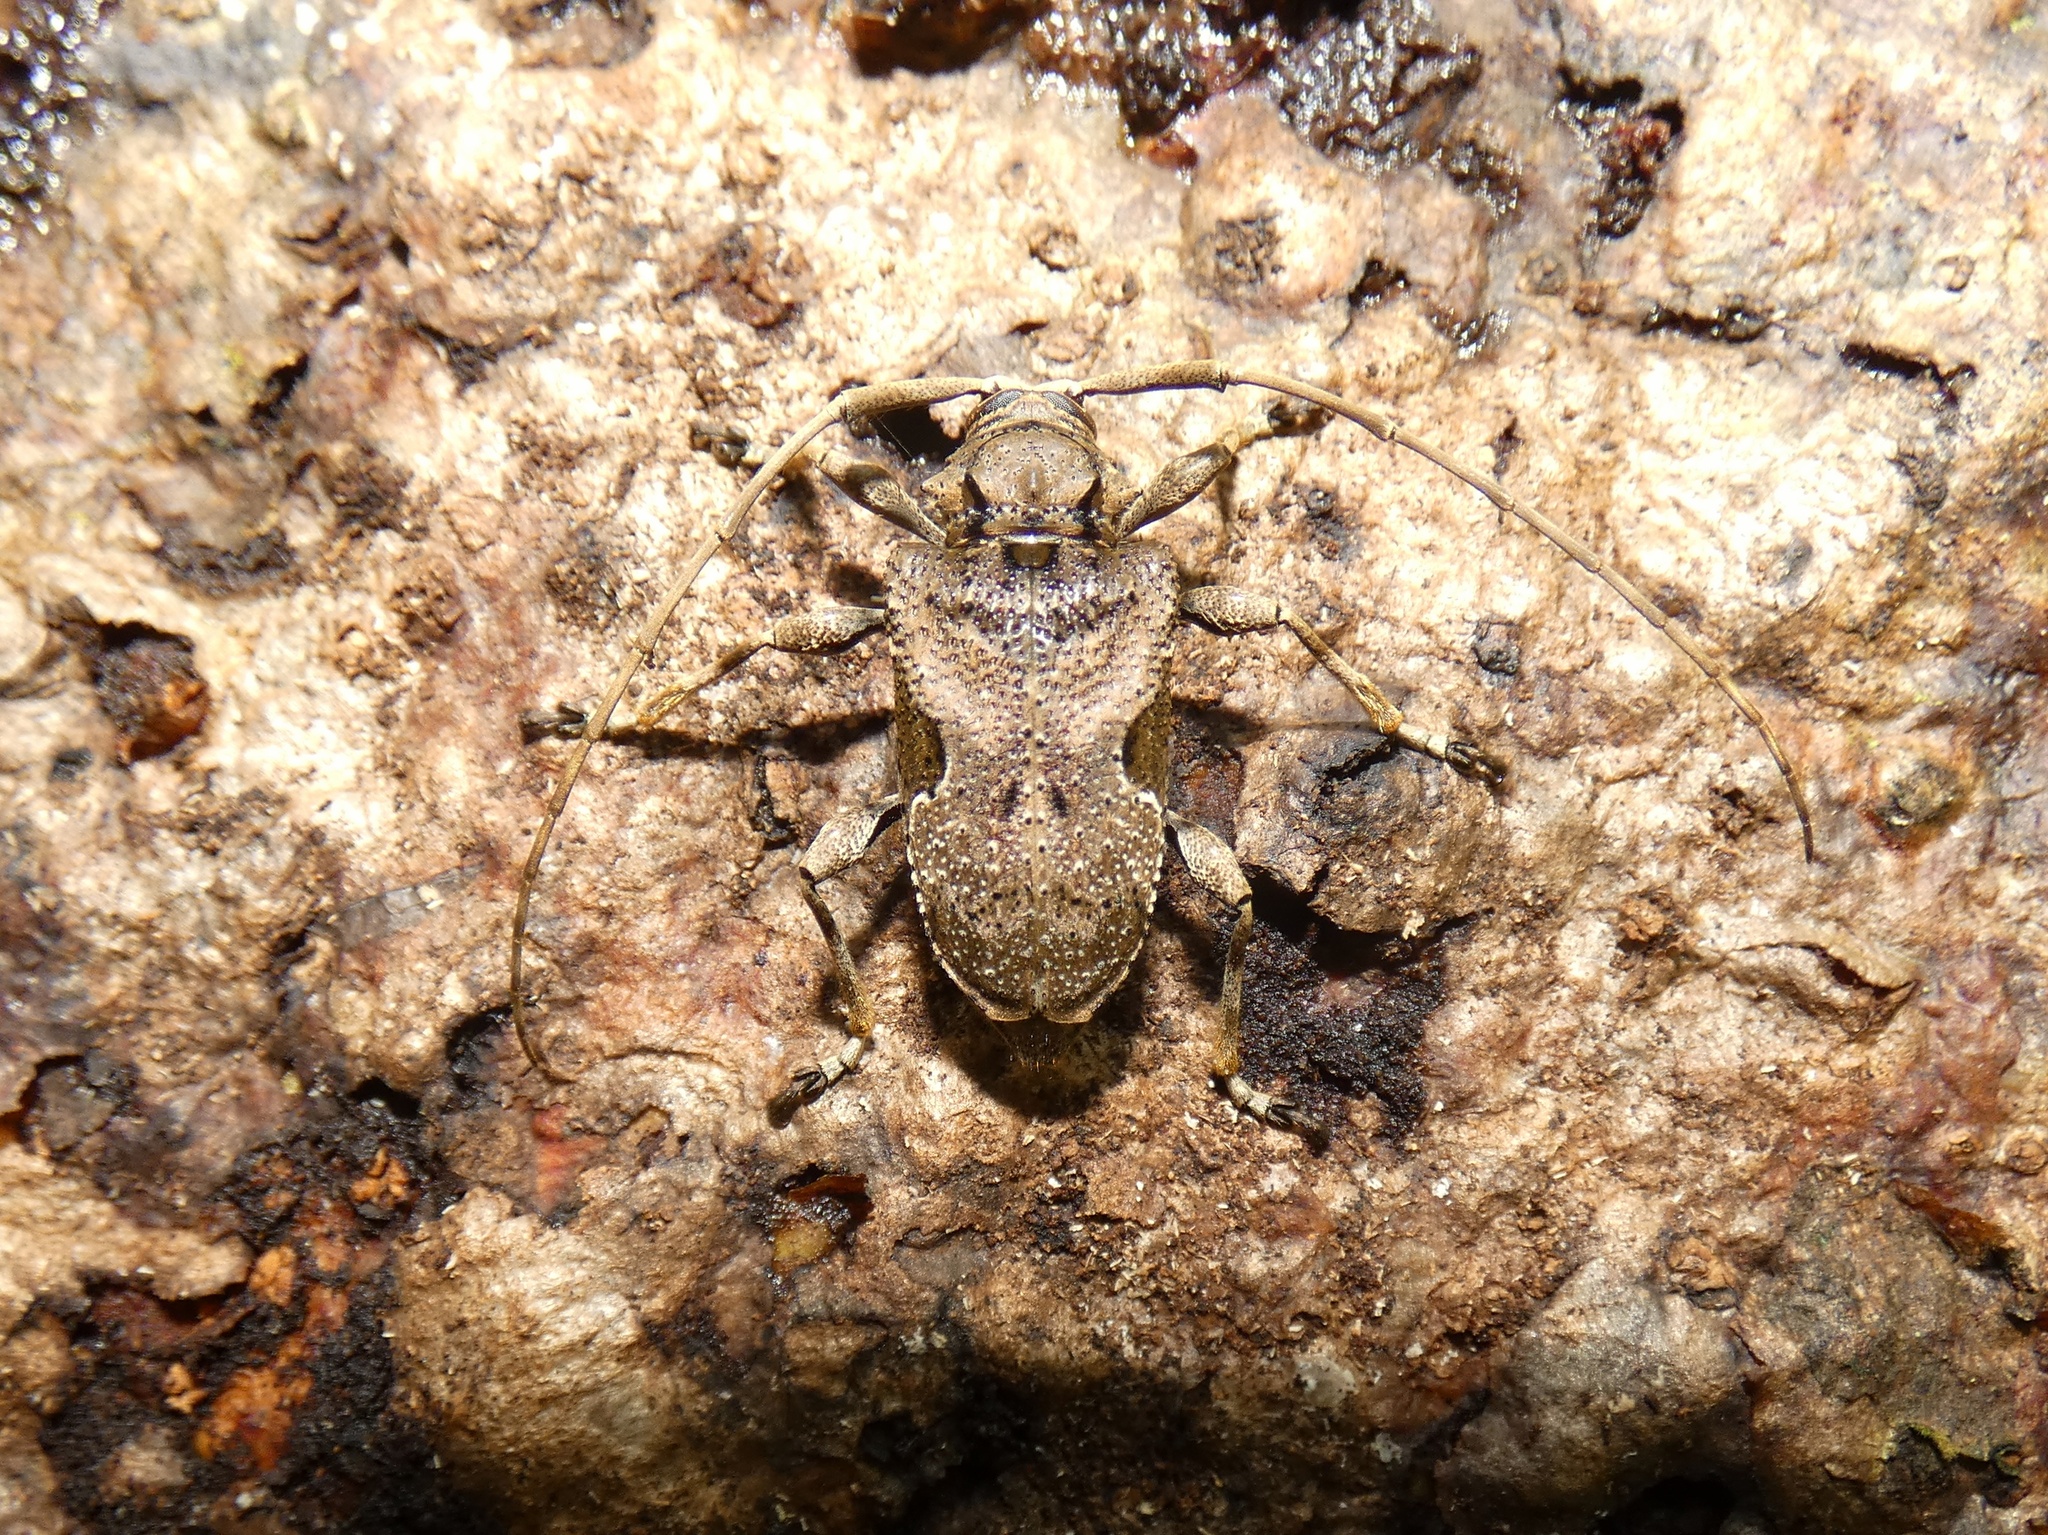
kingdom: Animalia
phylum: Arthropoda
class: Insecta
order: Coleoptera
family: Cerambycidae
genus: Lagocheirus
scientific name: Lagocheirus araneiformis
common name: Beetle
